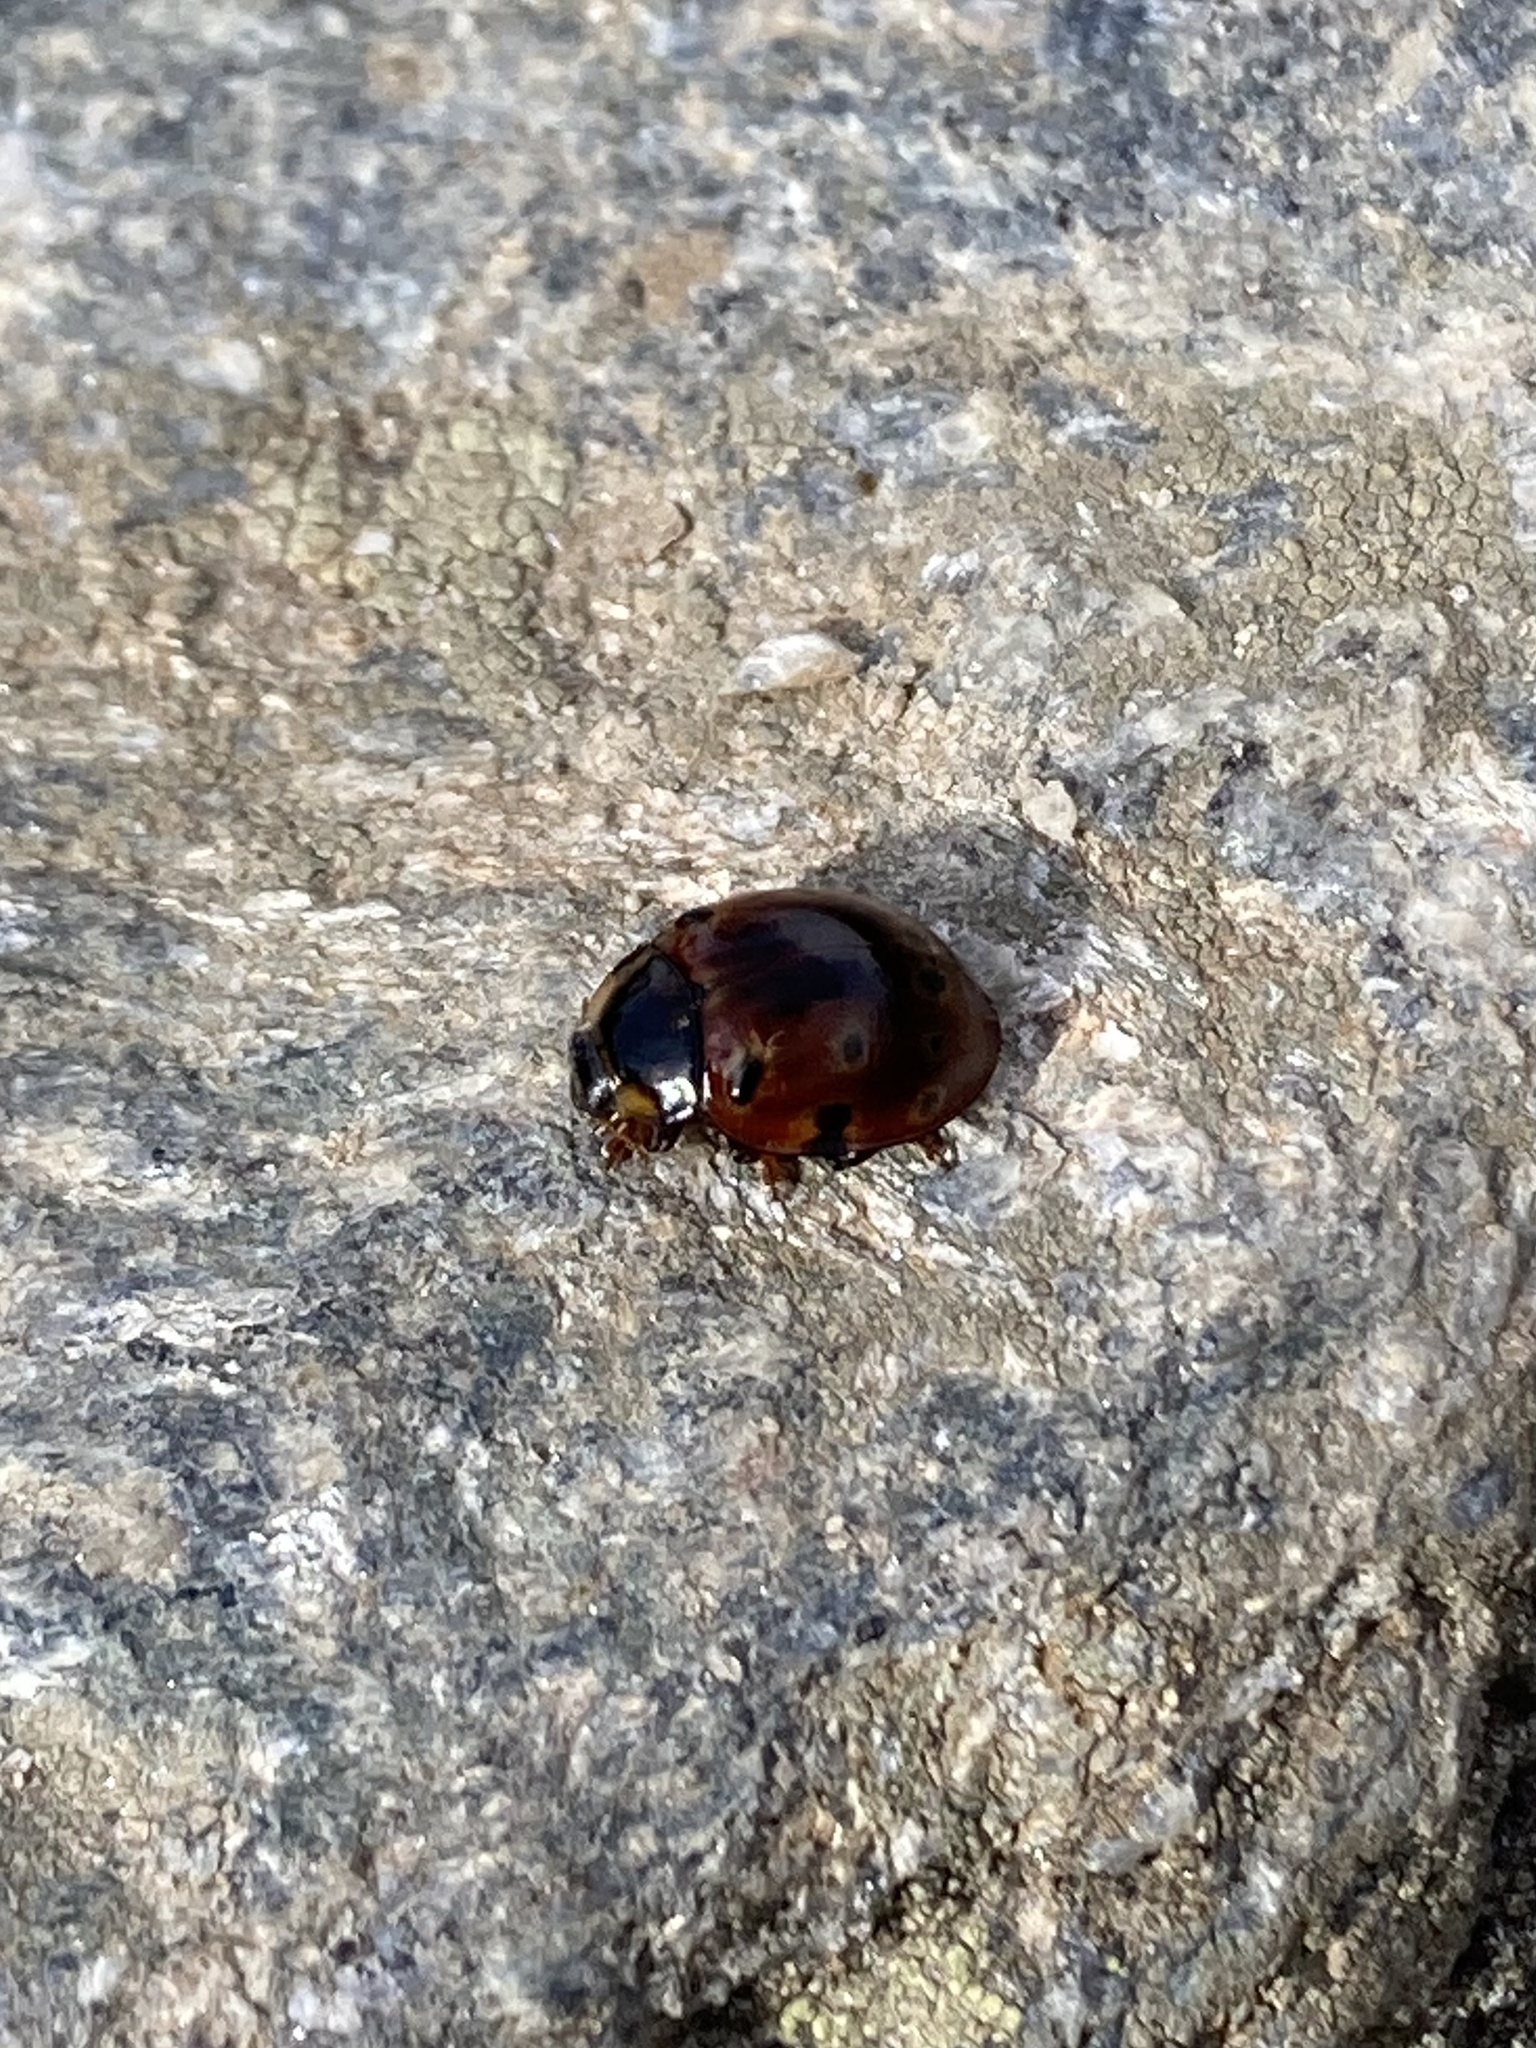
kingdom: Animalia
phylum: Arthropoda
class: Insecta
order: Coleoptera
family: Coccinellidae
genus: Anatis
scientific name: Anatis mali
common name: Eye-spotted lady beetle
